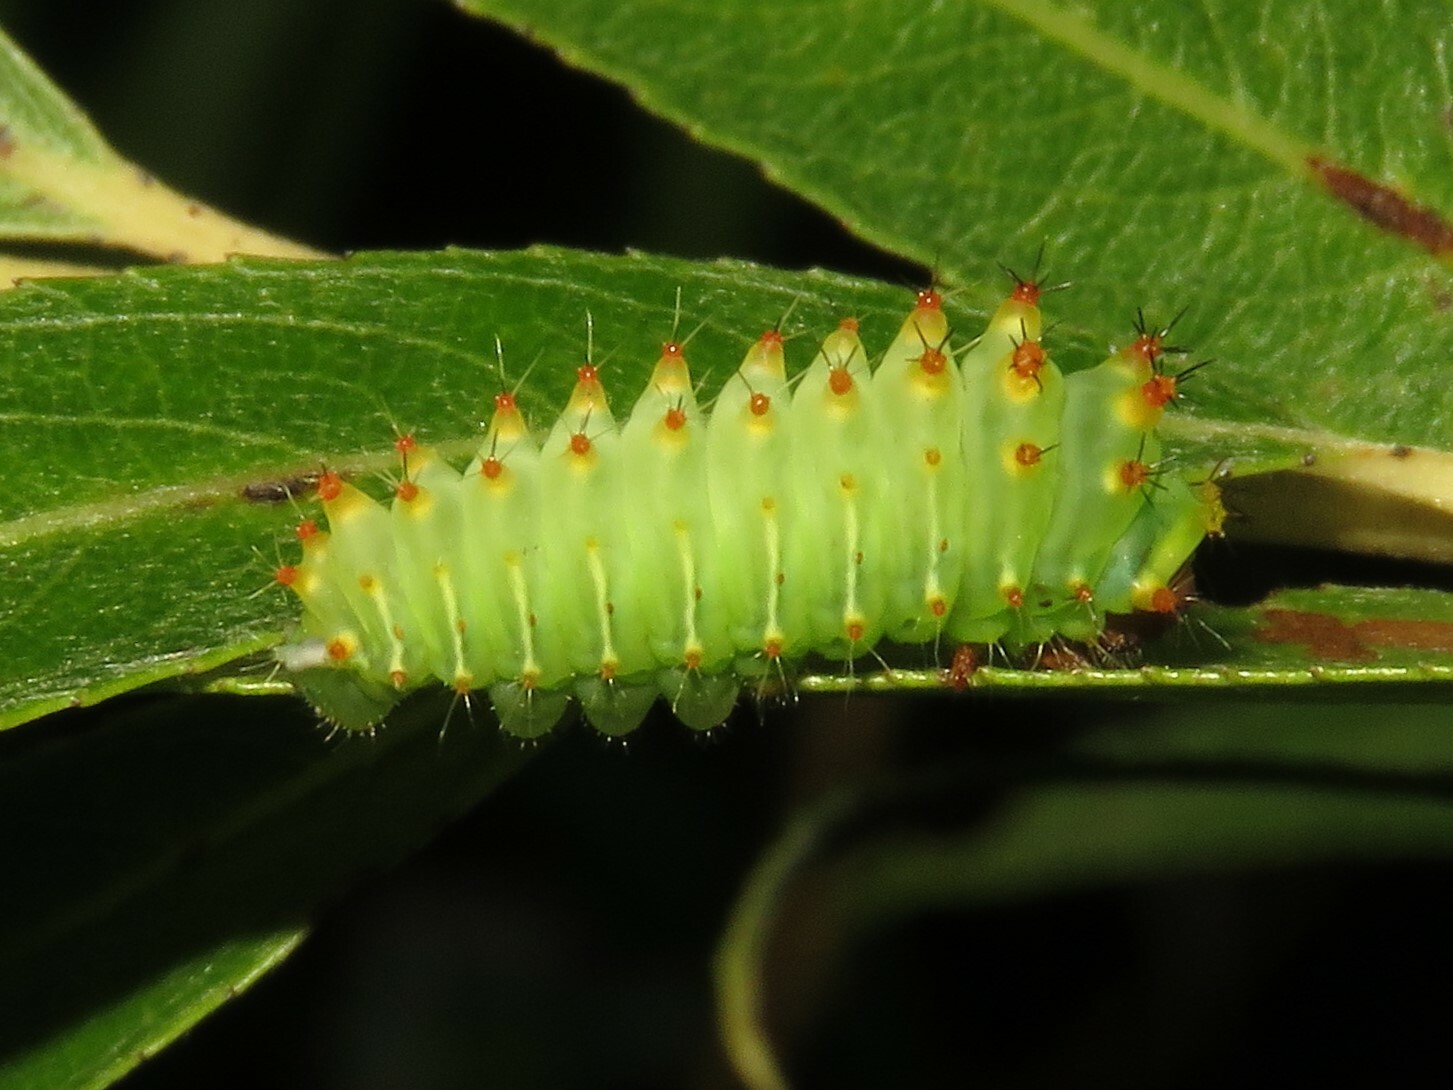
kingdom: Animalia
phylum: Arthropoda
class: Insecta
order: Lepidoptera
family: Saturniidae
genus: Antheraea
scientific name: Antheraea polyphemus
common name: Polyphemus moth
